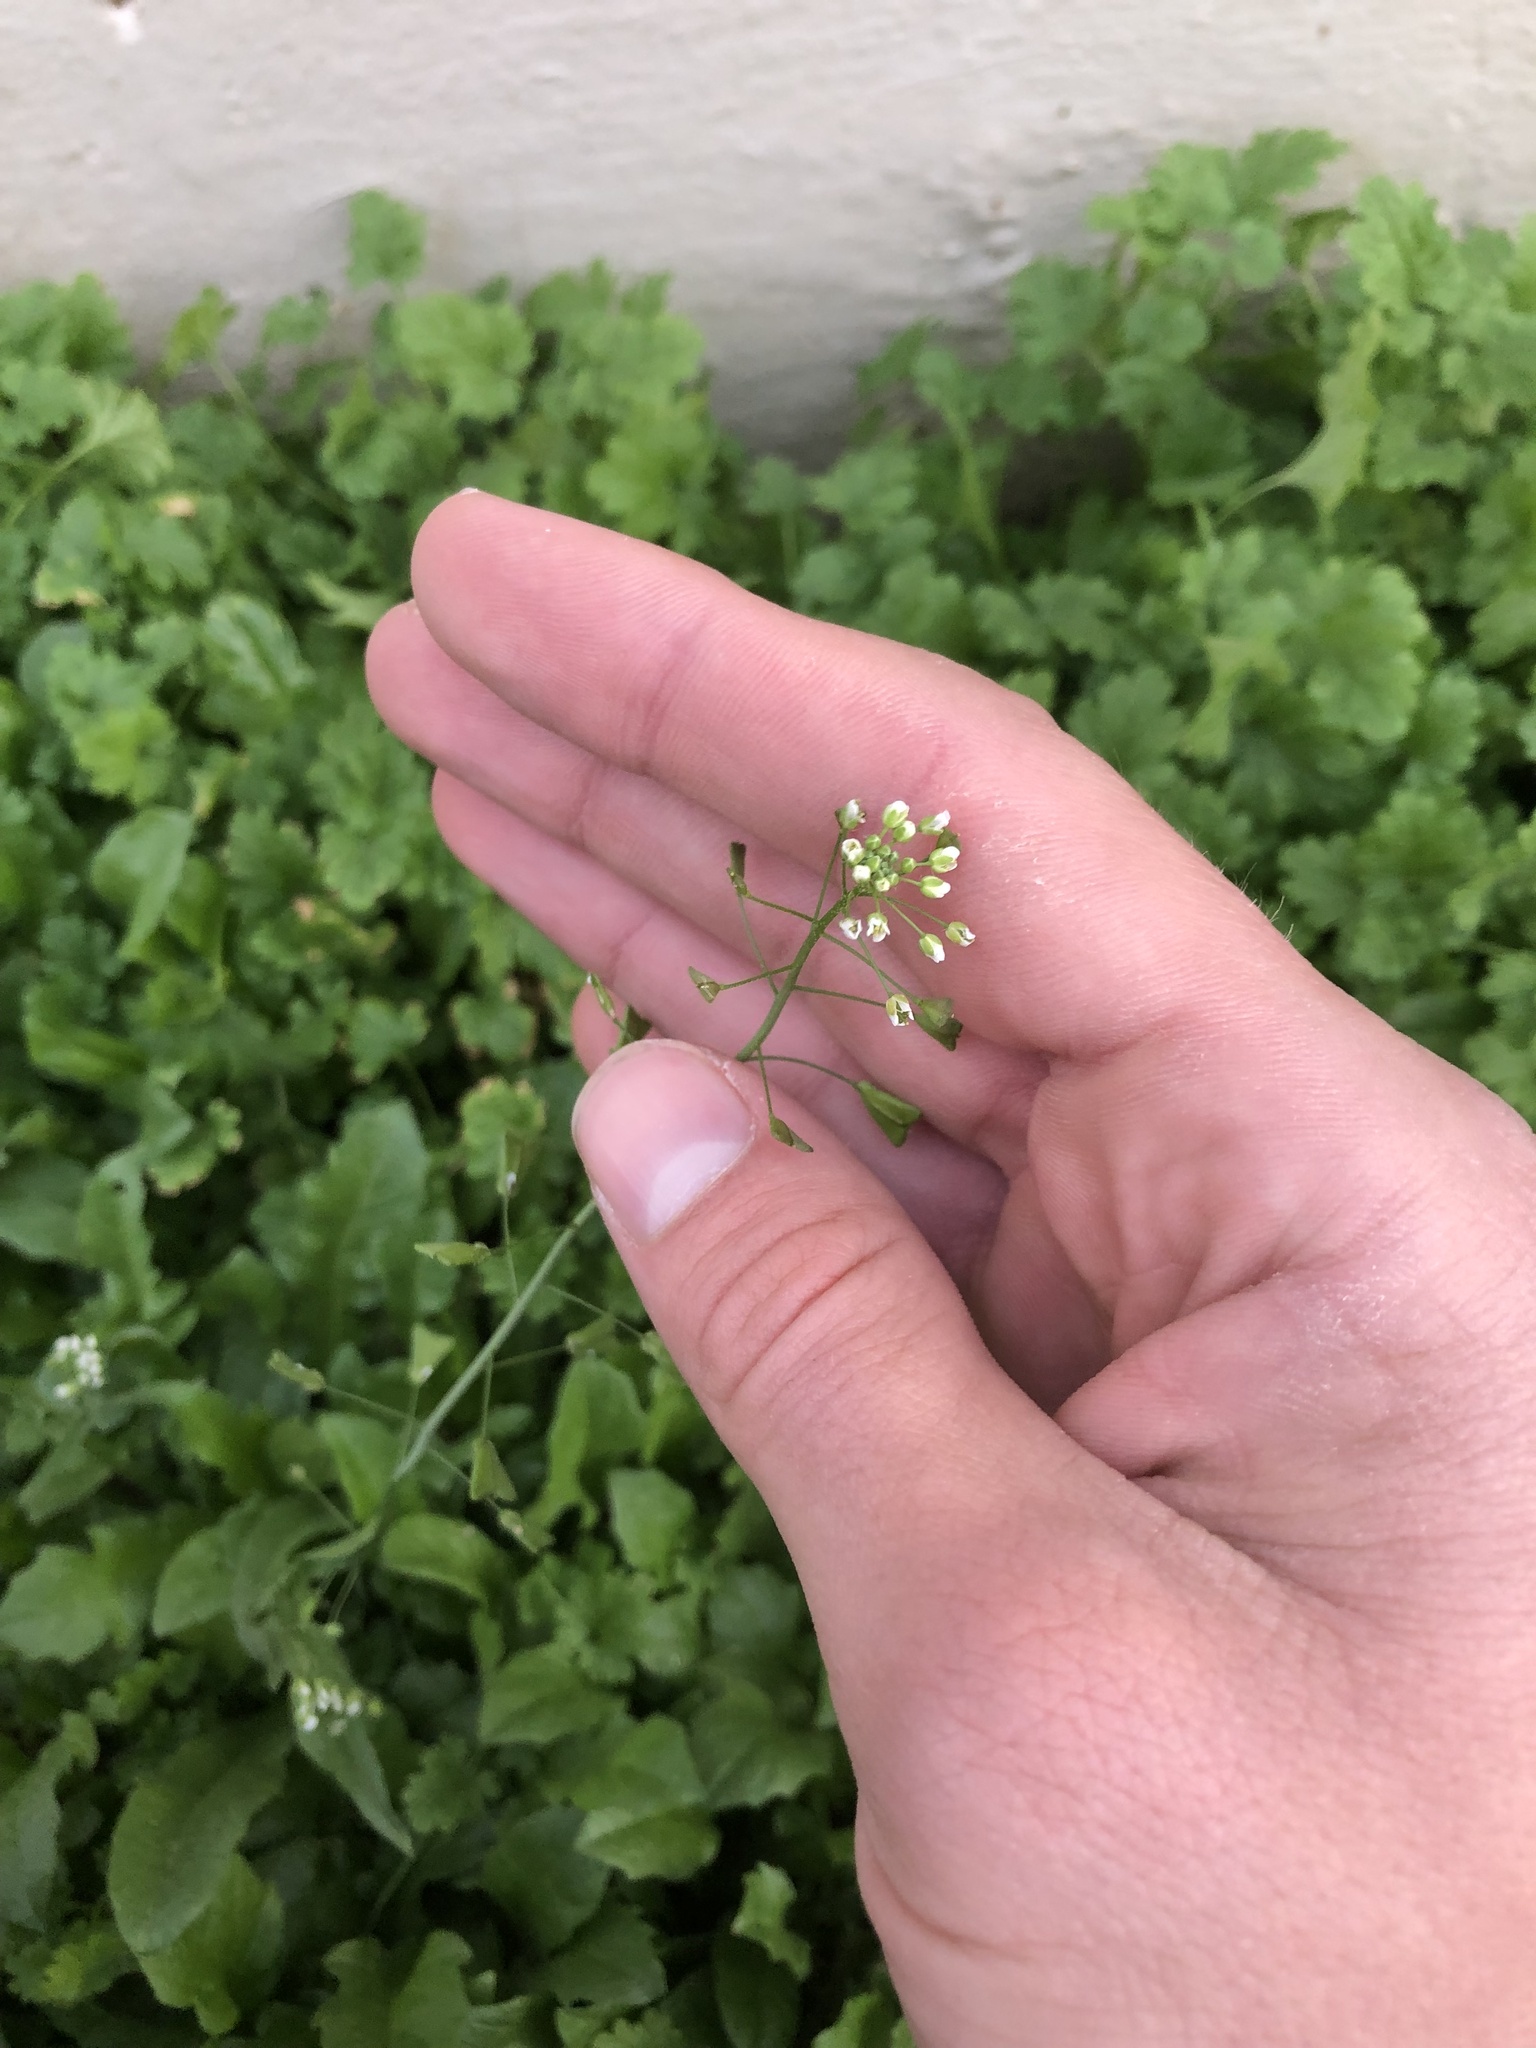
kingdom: Plantae
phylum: Tracheophyta
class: Magnoliopsida
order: Brassicales
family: Brassicaceae
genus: Capsella
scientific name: Capsella bursa-pastoris
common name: Shepherd's purse
